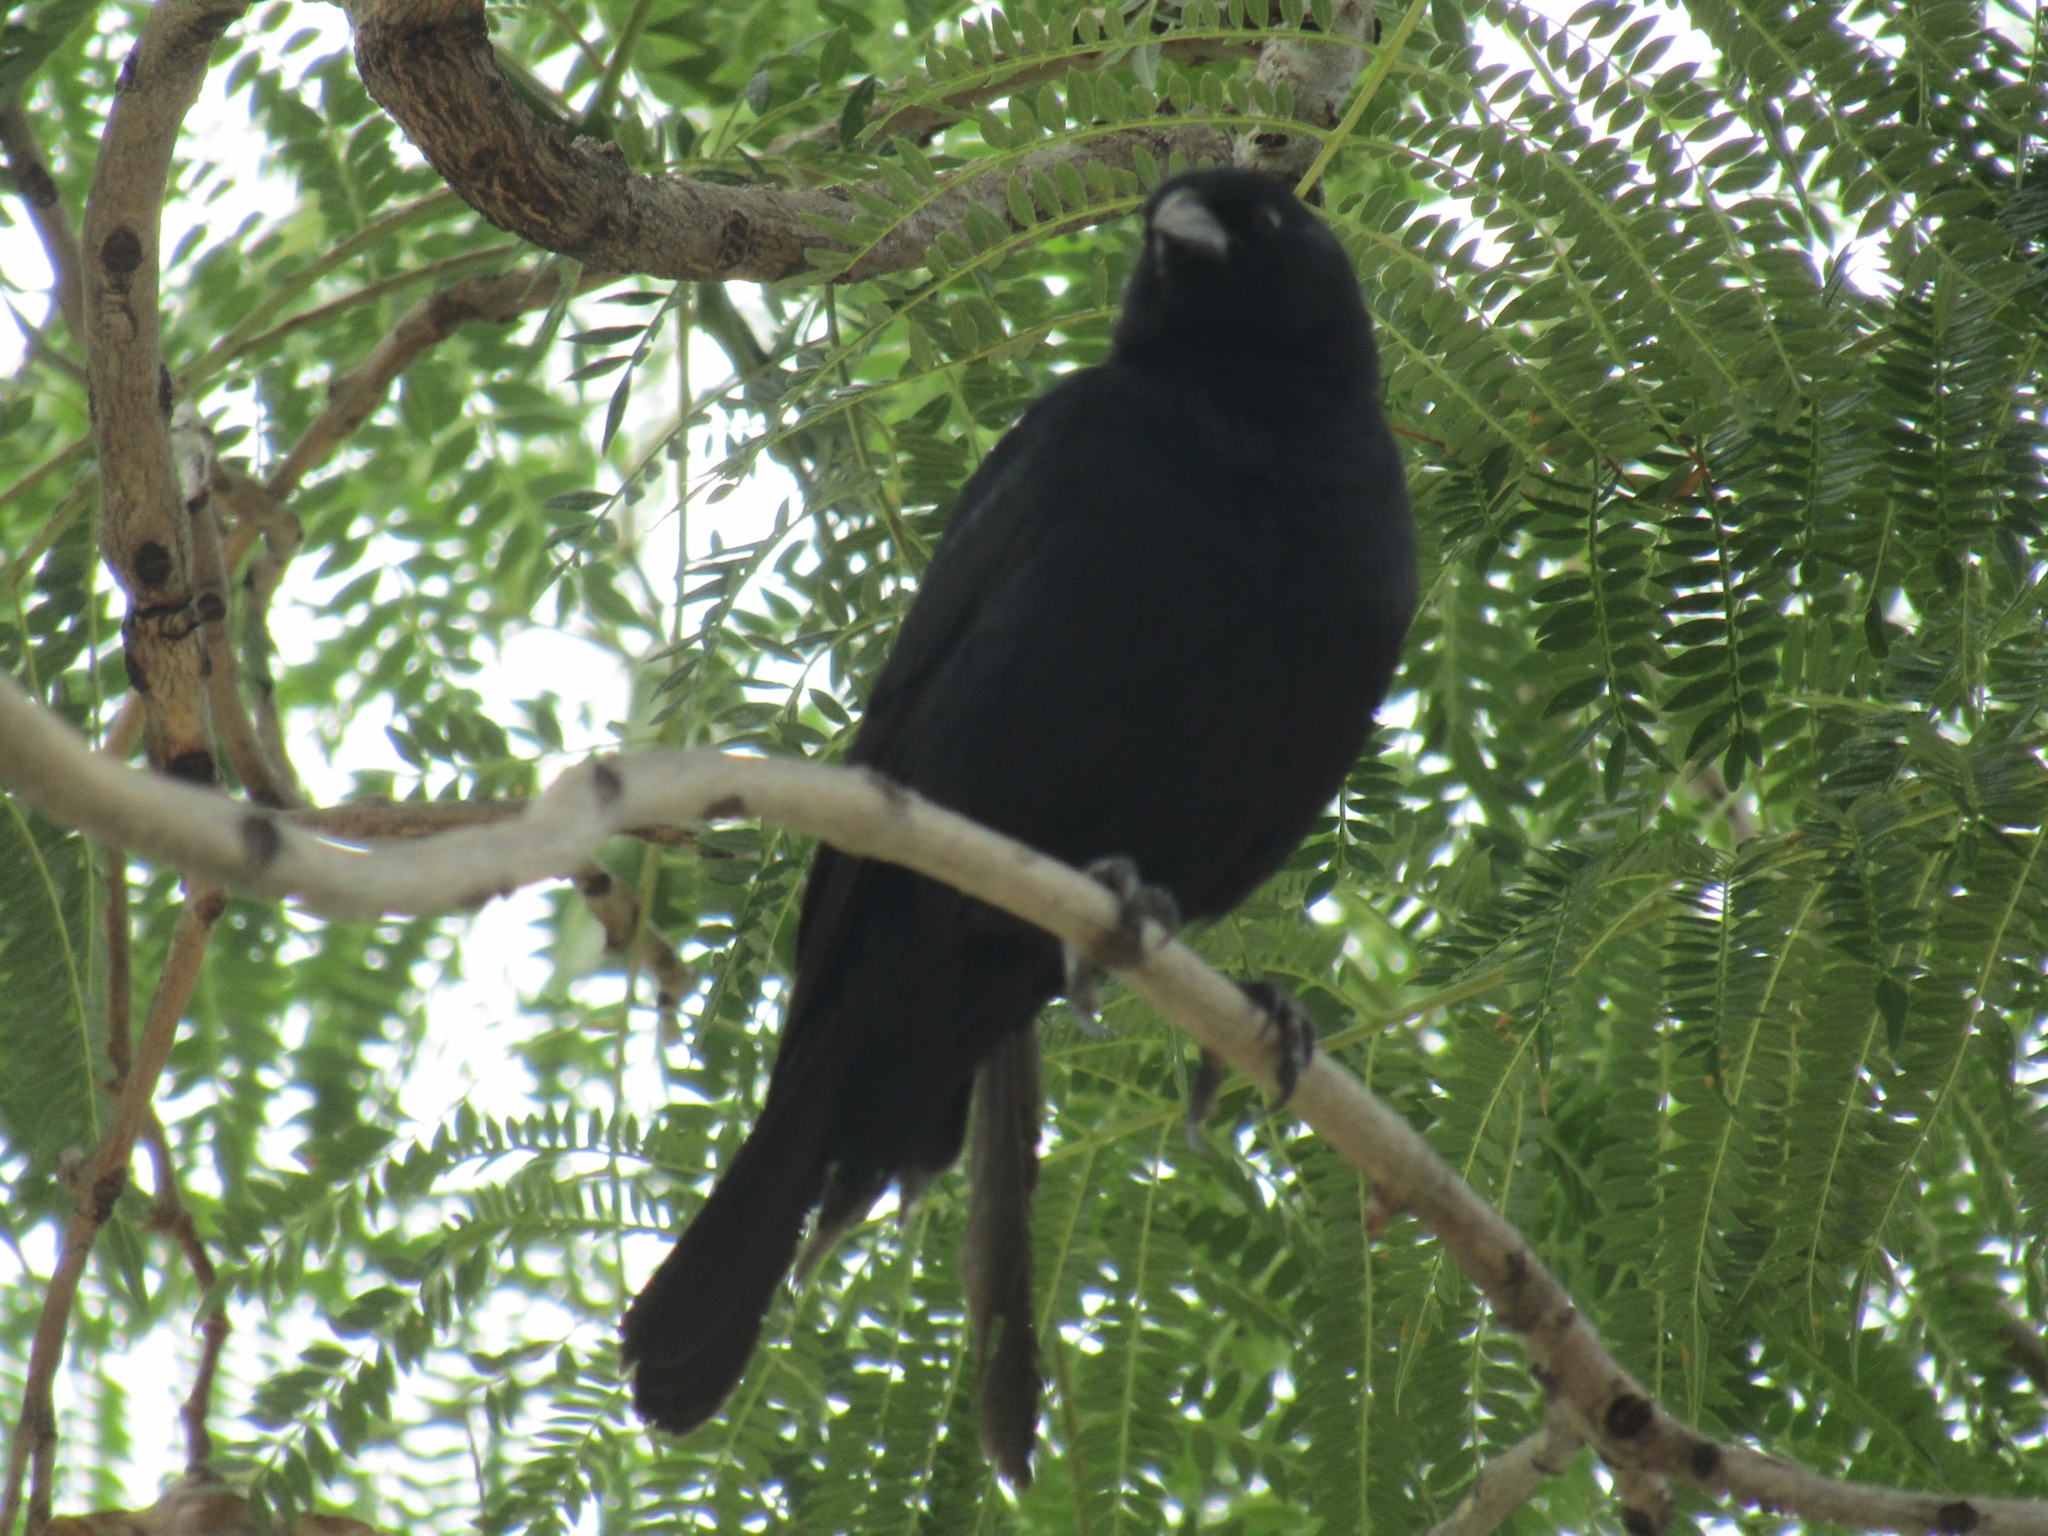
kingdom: Animalia
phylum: Chordata
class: Aves
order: Passeriformes
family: Icteridae
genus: Molothrus
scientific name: Molothrus rufoaxillaris
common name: Screaming cowbird
